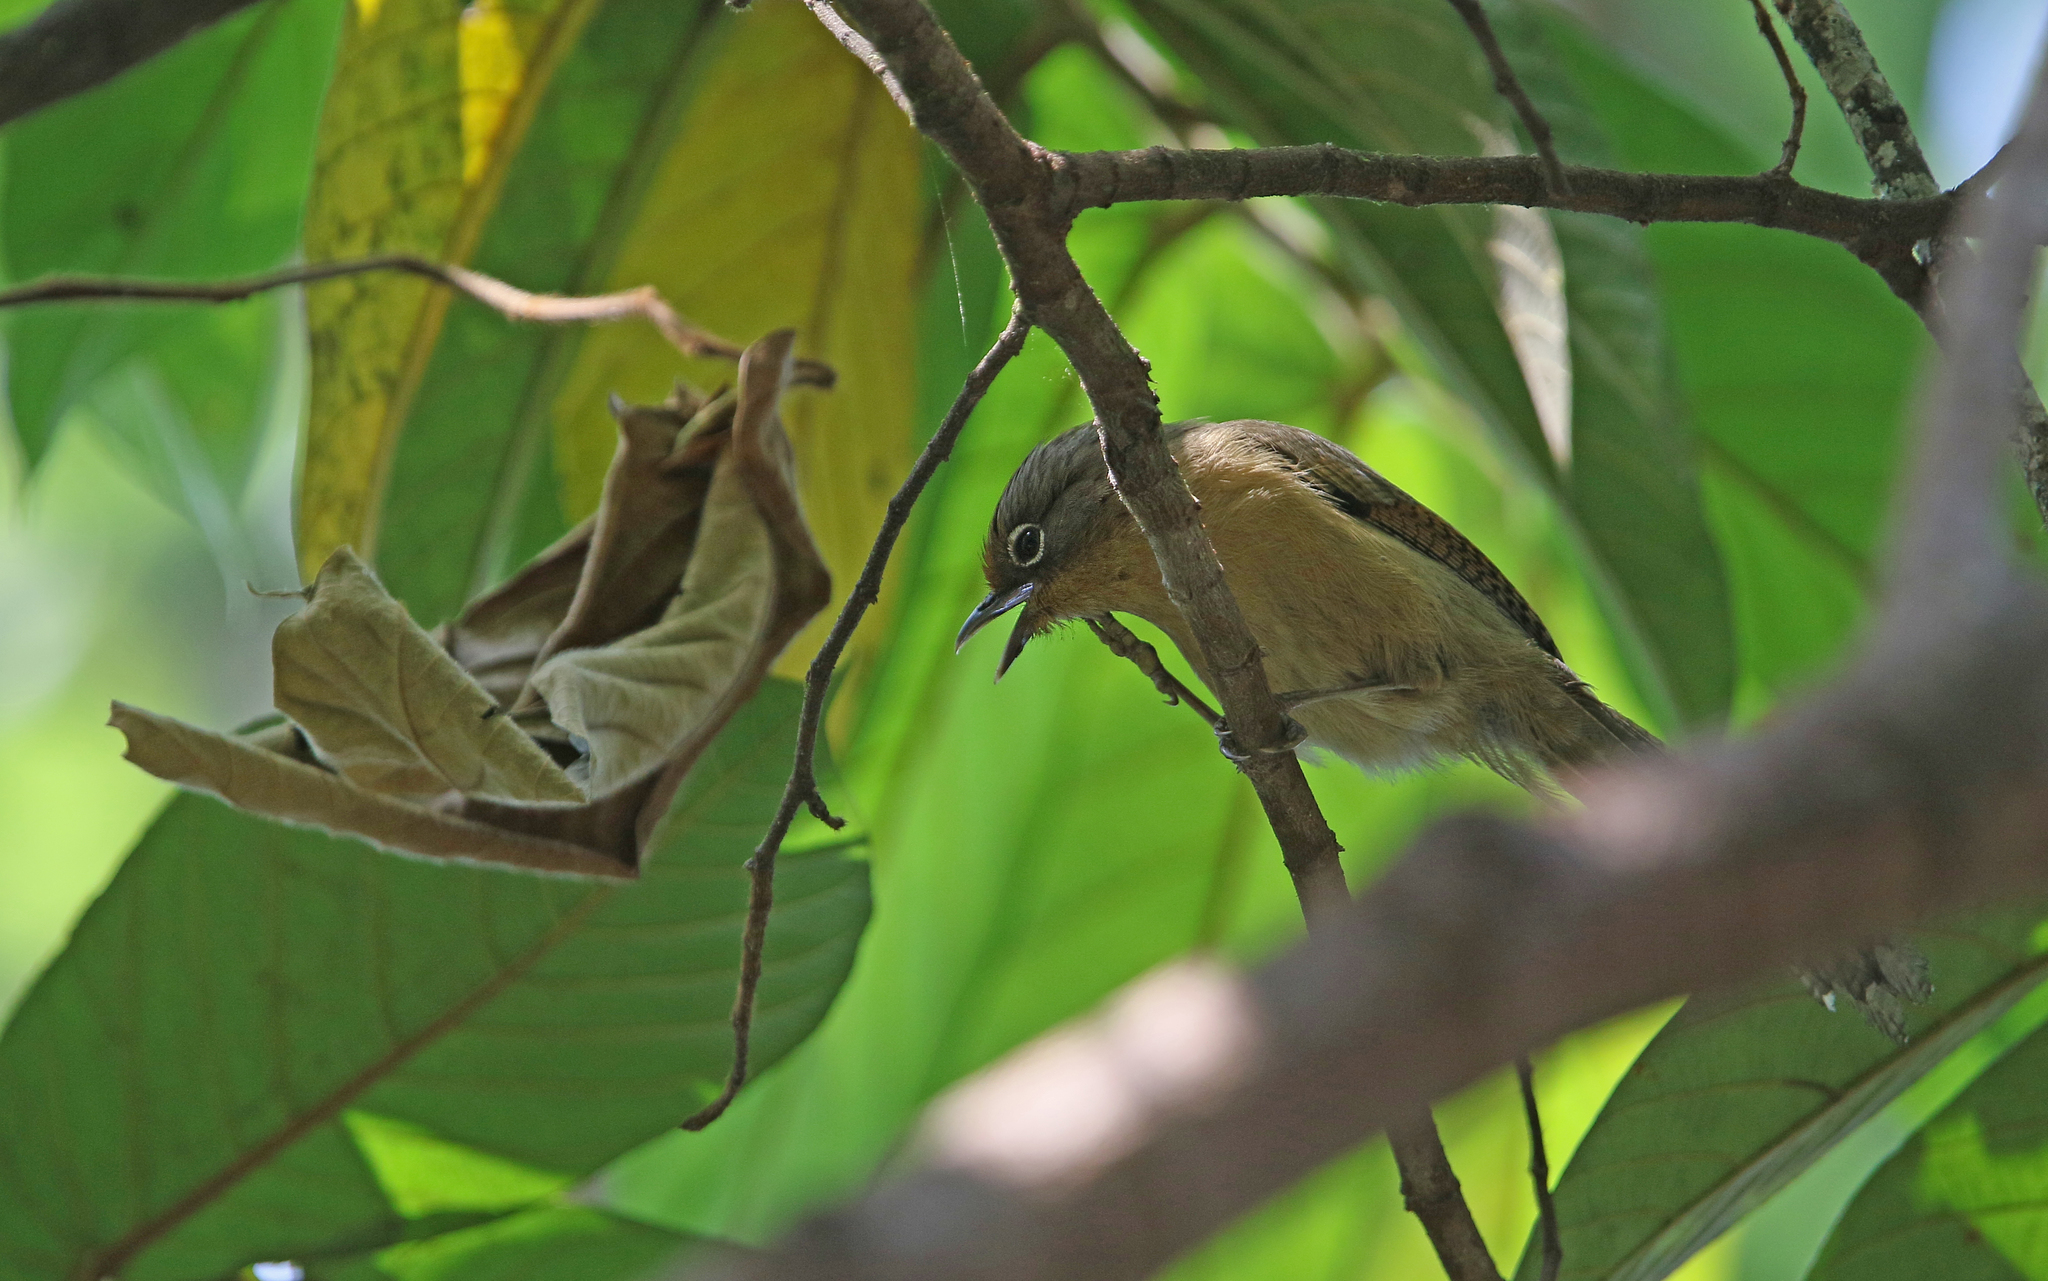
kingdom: Animalia
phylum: Chordata
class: Aves
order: Passeriformes
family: Leiothrichidae
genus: Actinodura
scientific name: Actinodura ramsayi
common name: Spectacled barwing
